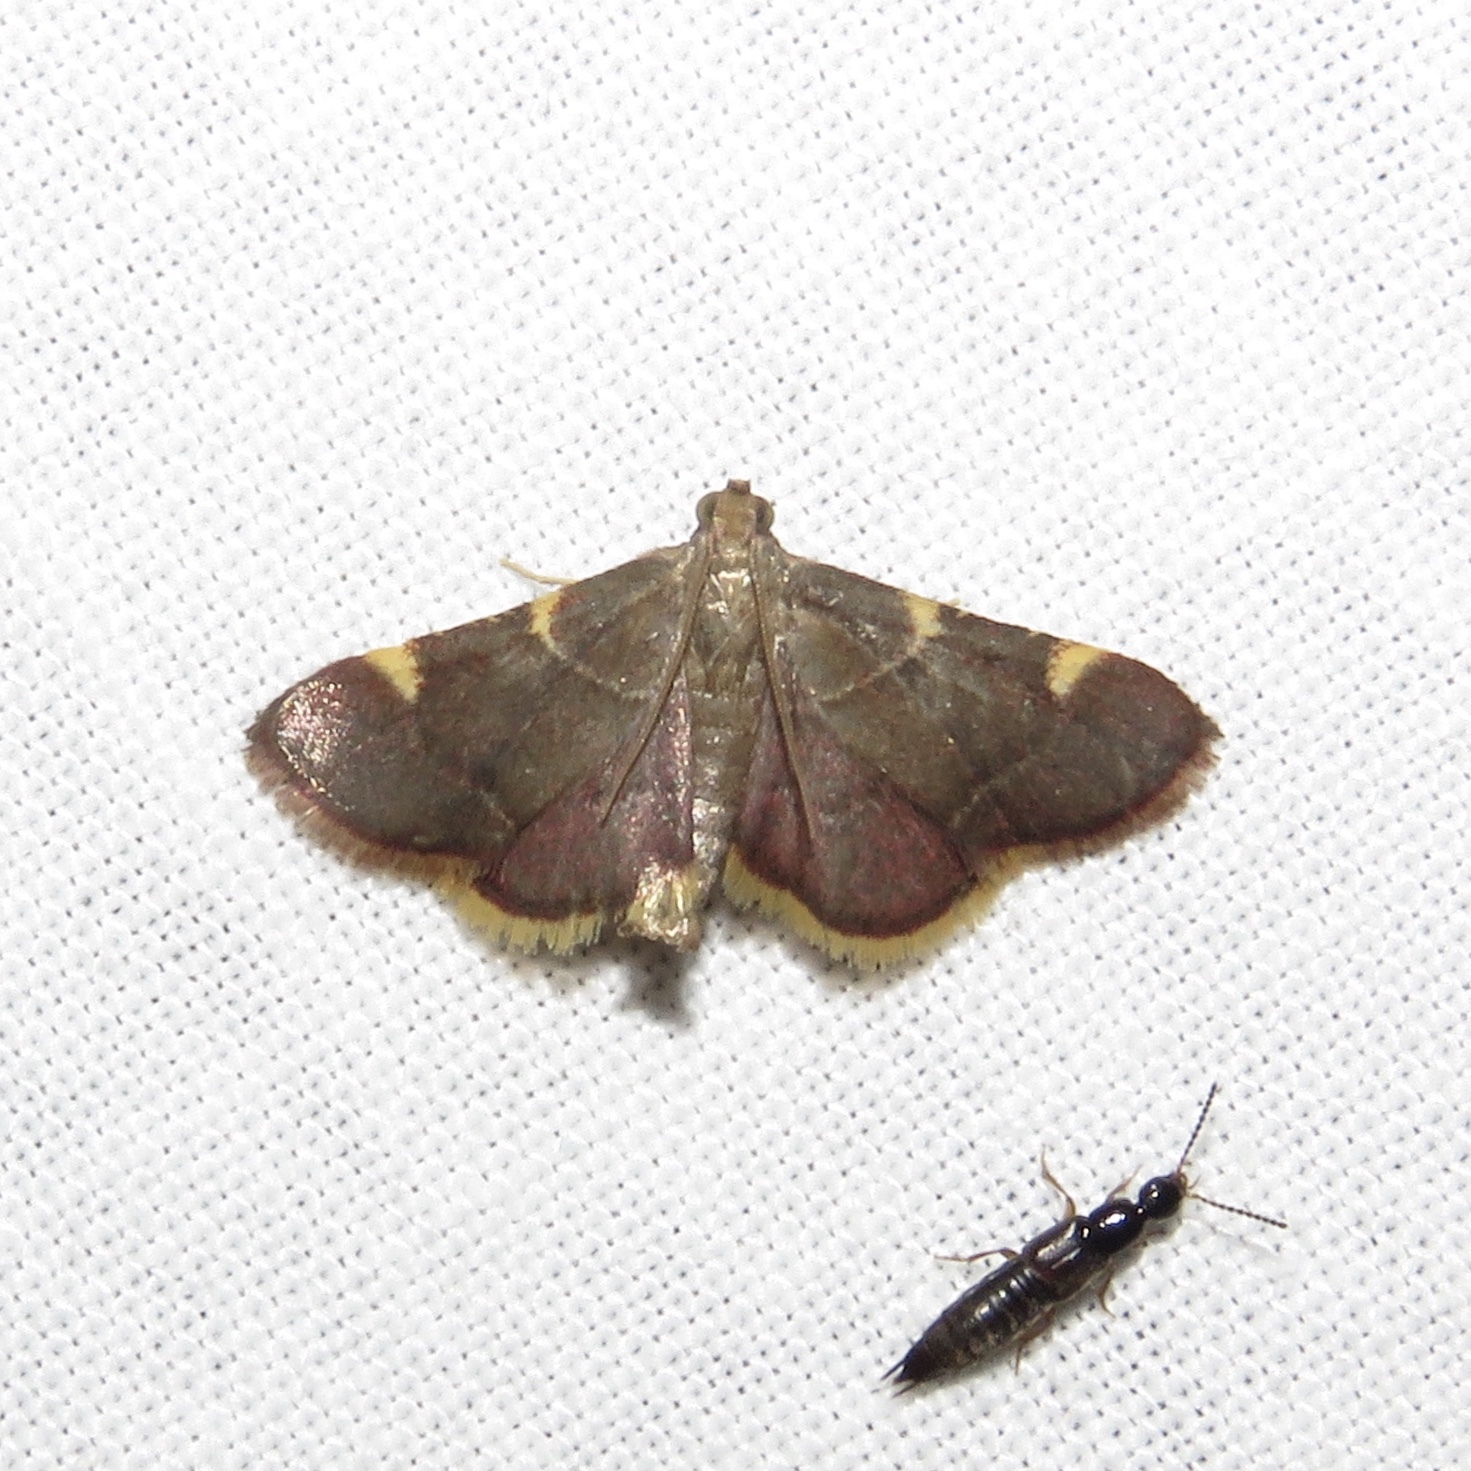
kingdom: Animalia
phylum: Arthropoda
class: Insecta
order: Lepidoptera
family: Pyralidae
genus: Hypsopygia
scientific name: Hypsopygia olinalis
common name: Yellow-fringed dolichomia moth
